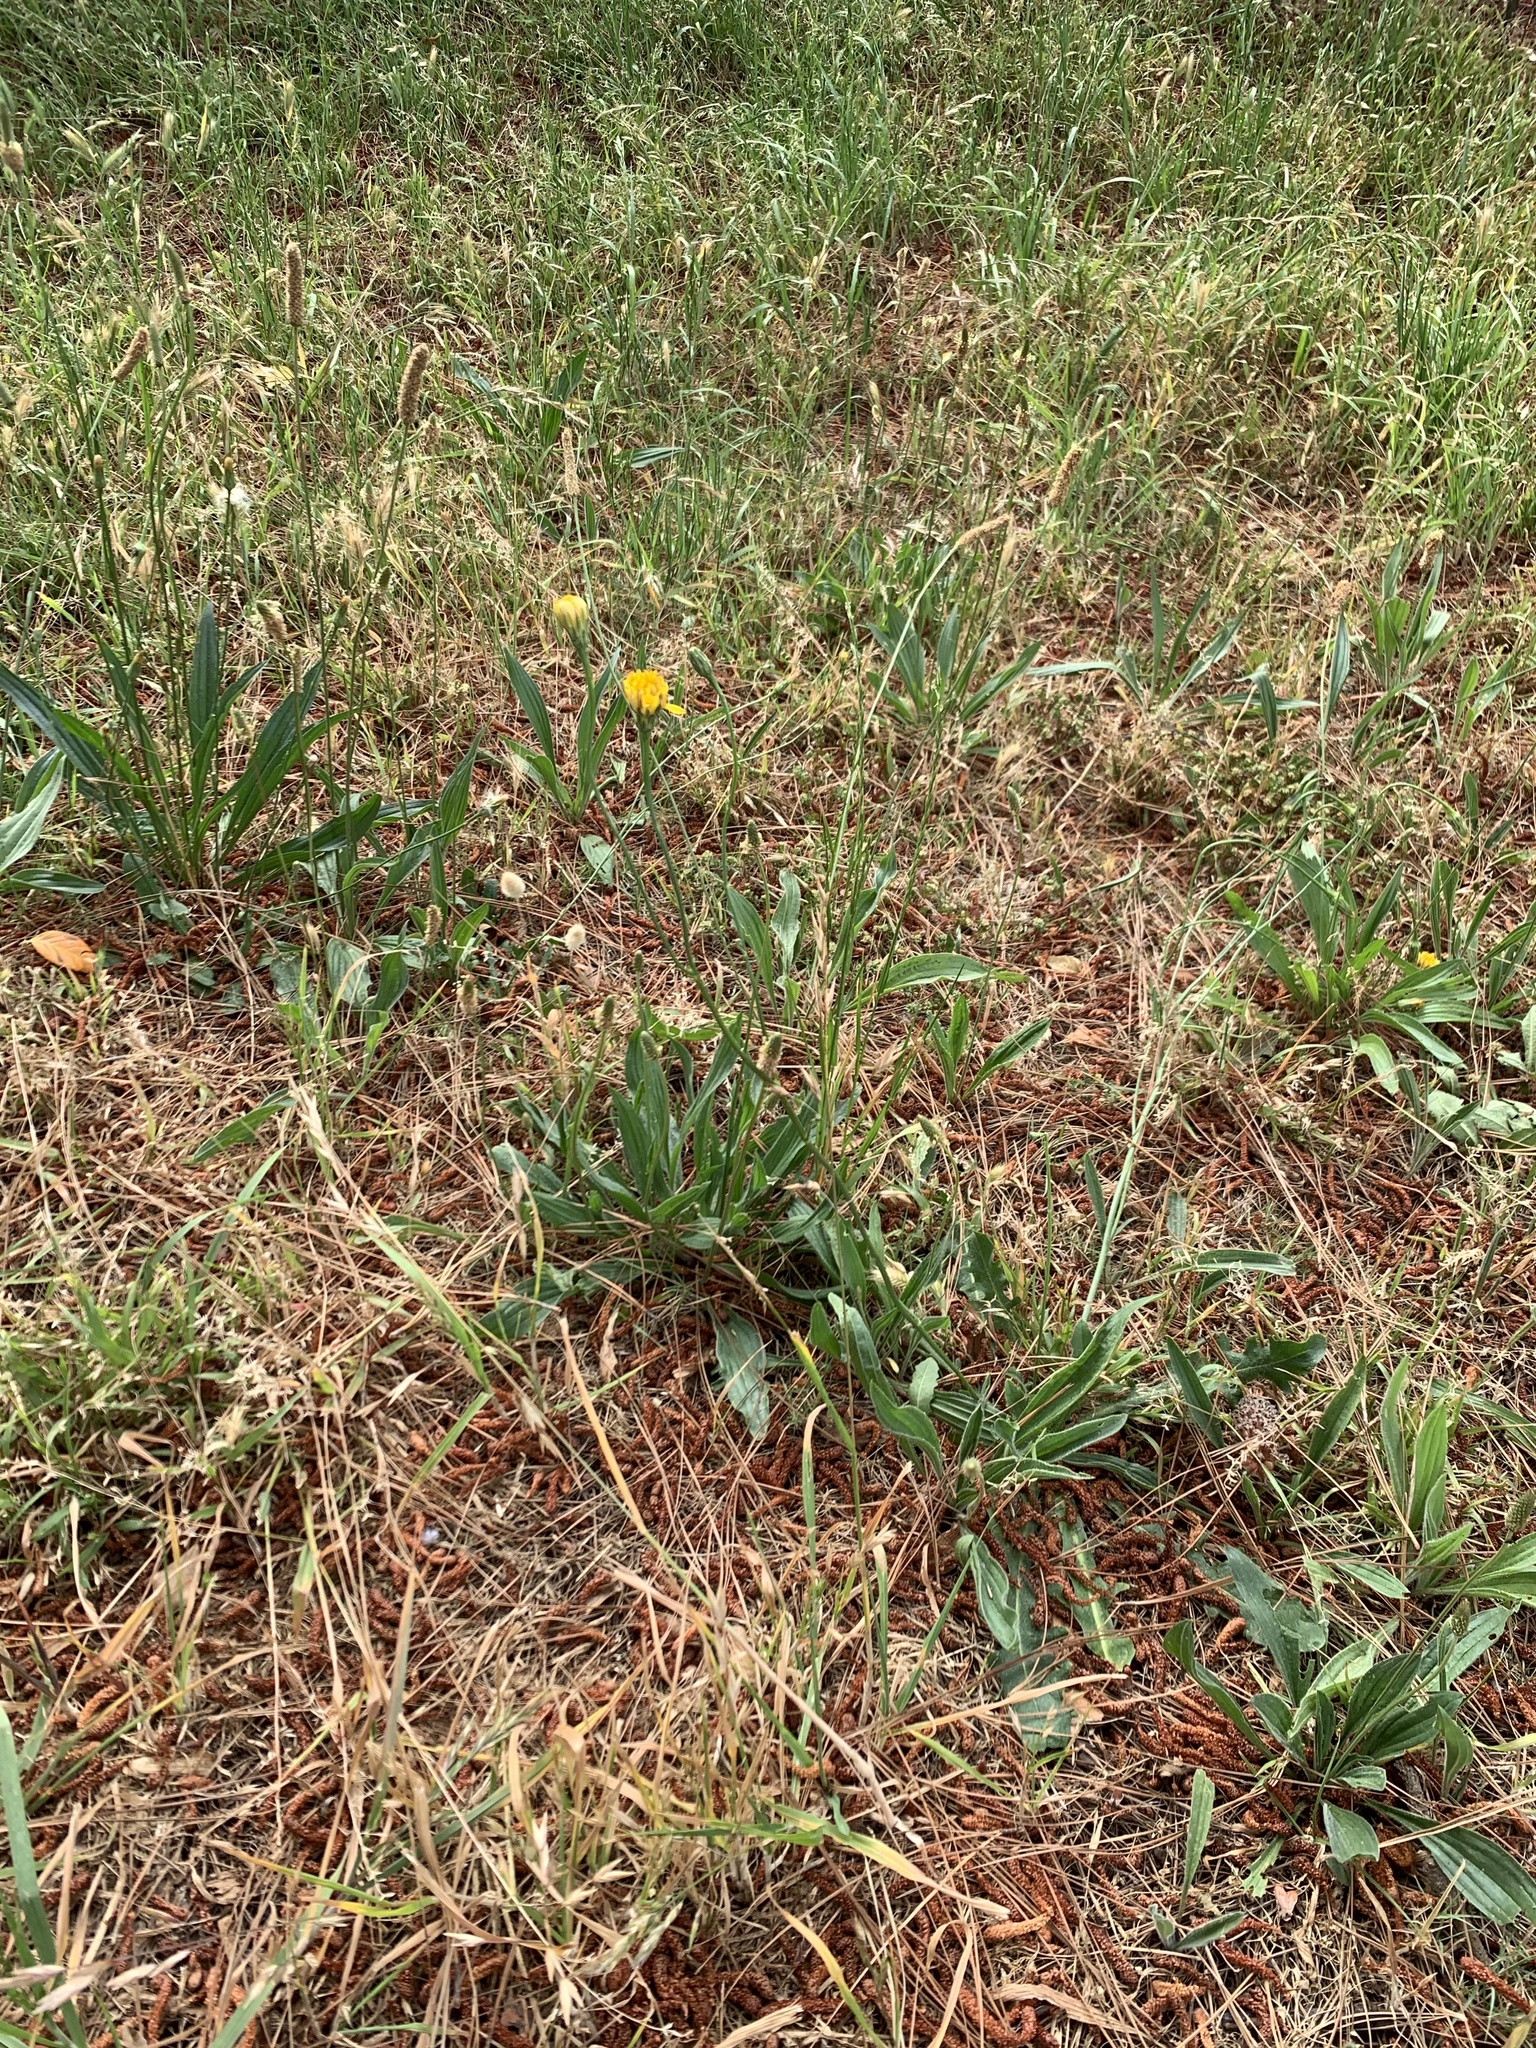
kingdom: Plantae
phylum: Tracheophyta
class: Magnoliopsida
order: Asterales
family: Asteraceae
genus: Hypochaeris
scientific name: Hypochaeris radicata
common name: Flatweed
